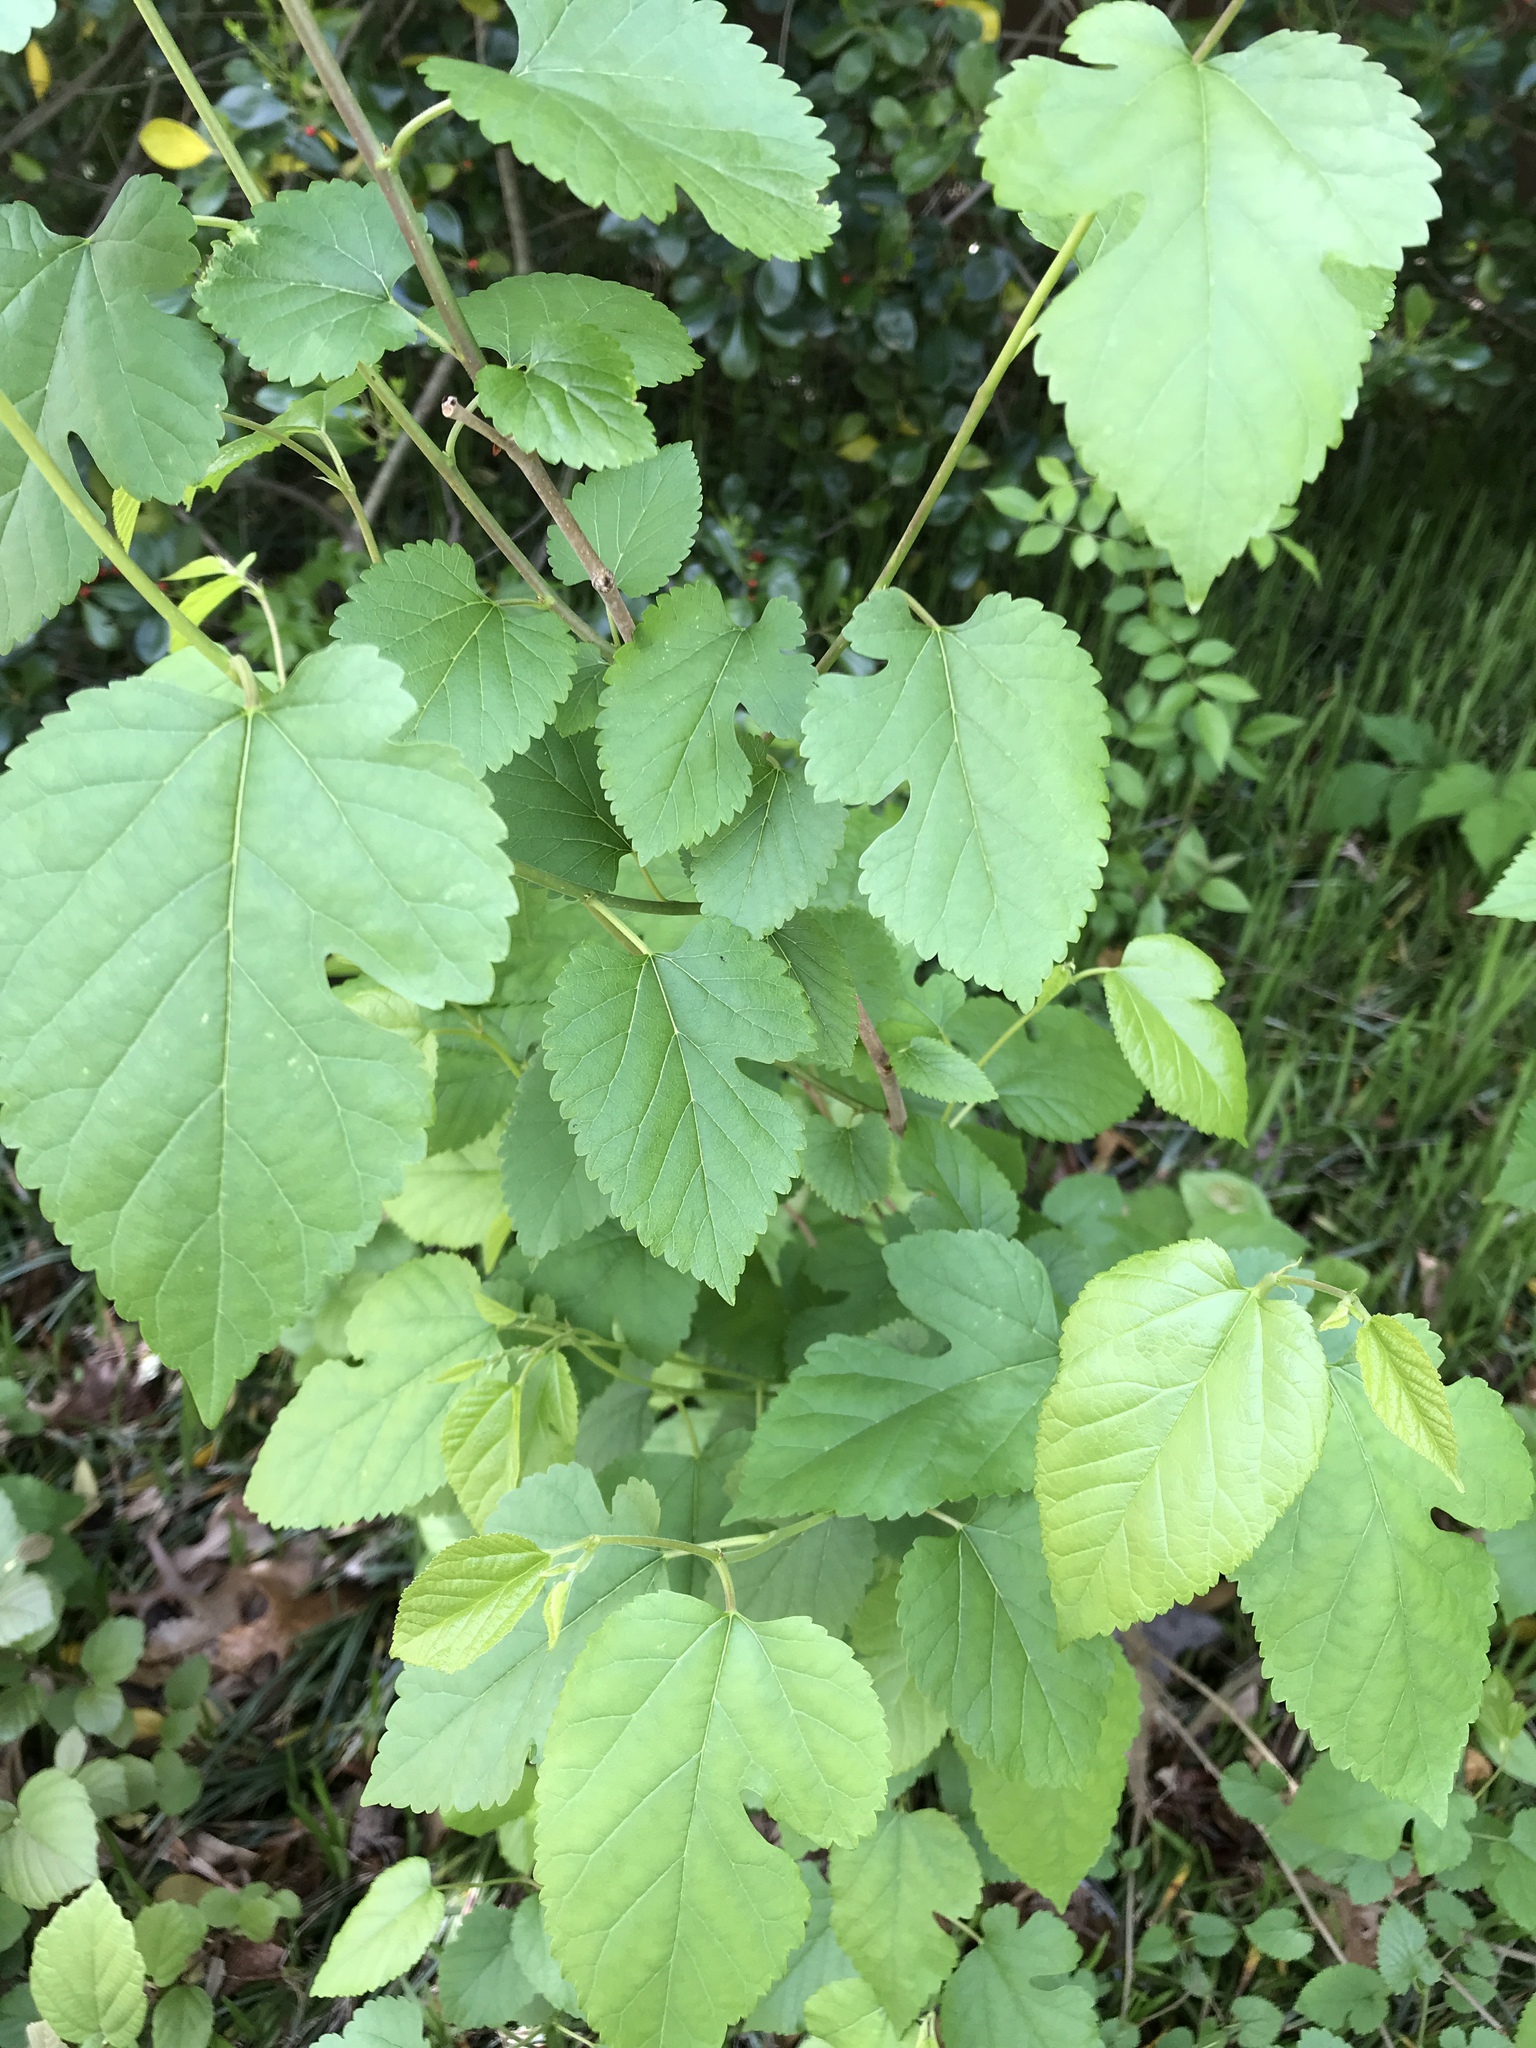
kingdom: Plantae
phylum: Tracheophyta
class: Magnoliopsida
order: Rosales
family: Moraceae
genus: Morus
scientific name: Morus alba
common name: White mulberry
